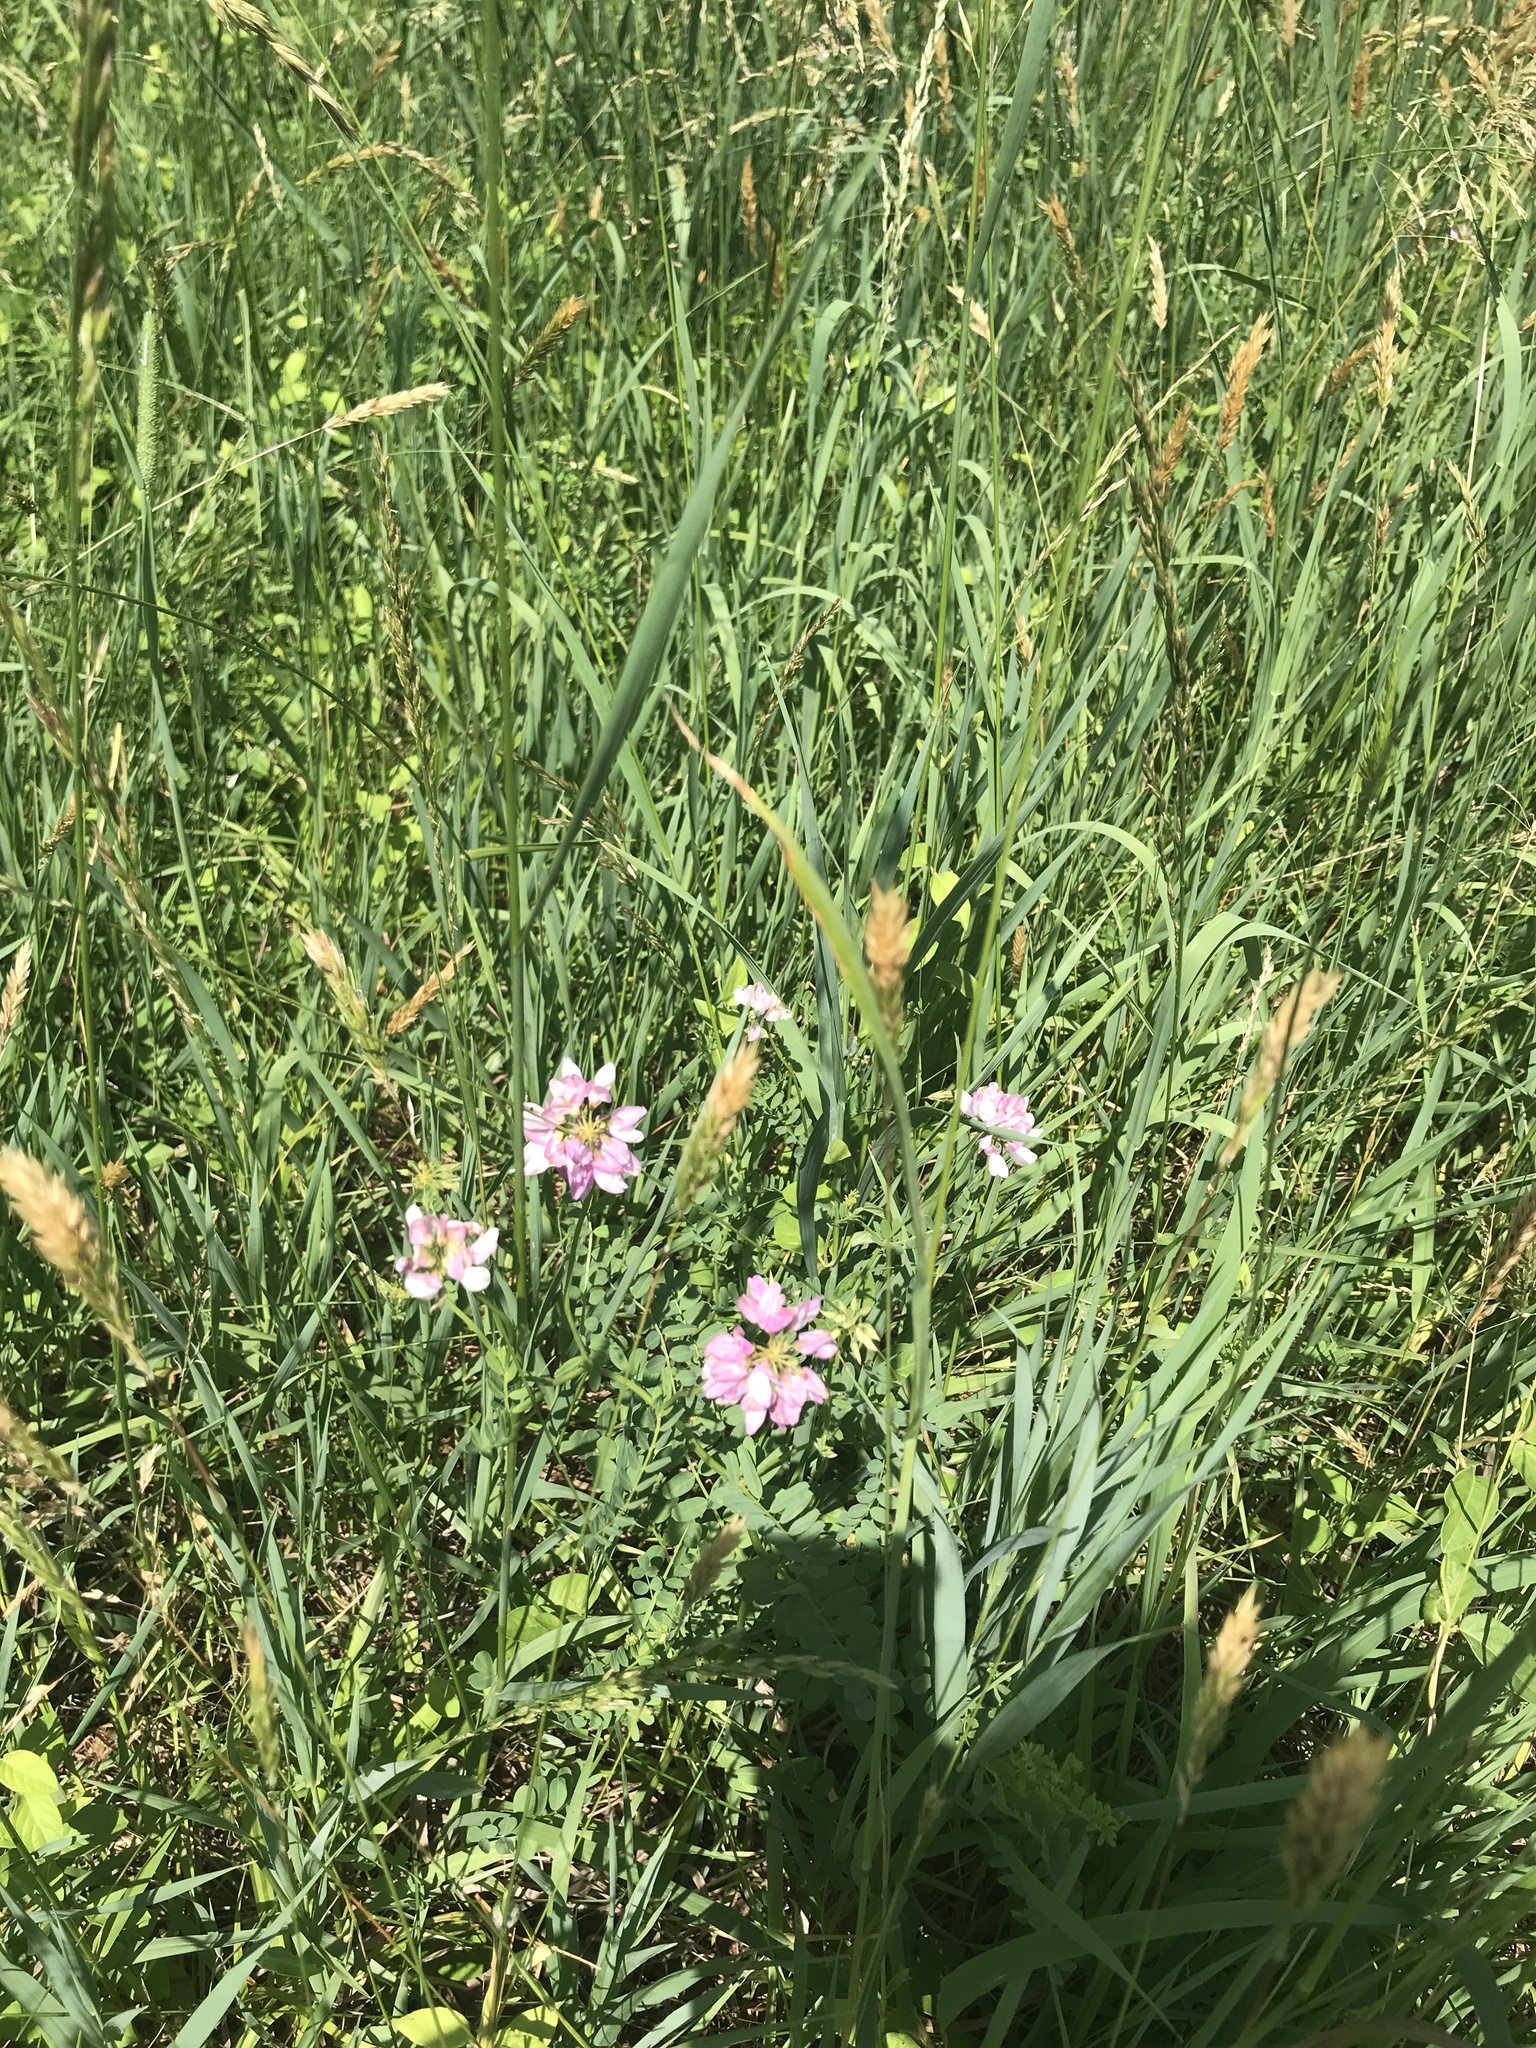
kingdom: Plantae
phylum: Tracheophyta
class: Magnoliopsida
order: Fabales
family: Fabaceae
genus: Coronilla
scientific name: Coronilla varia
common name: Crownvetch
